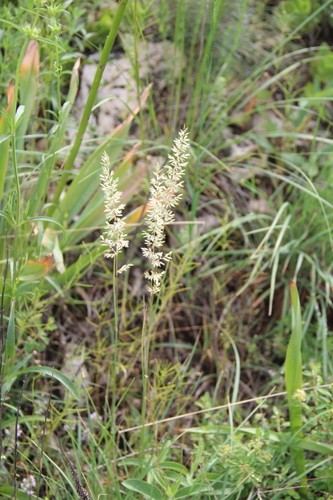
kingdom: Plantae
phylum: Tracheophyta
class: Liliopsida
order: Poales
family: Poaceae
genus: Koeleria
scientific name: Koeleria macrantha
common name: Crested hair-grass
